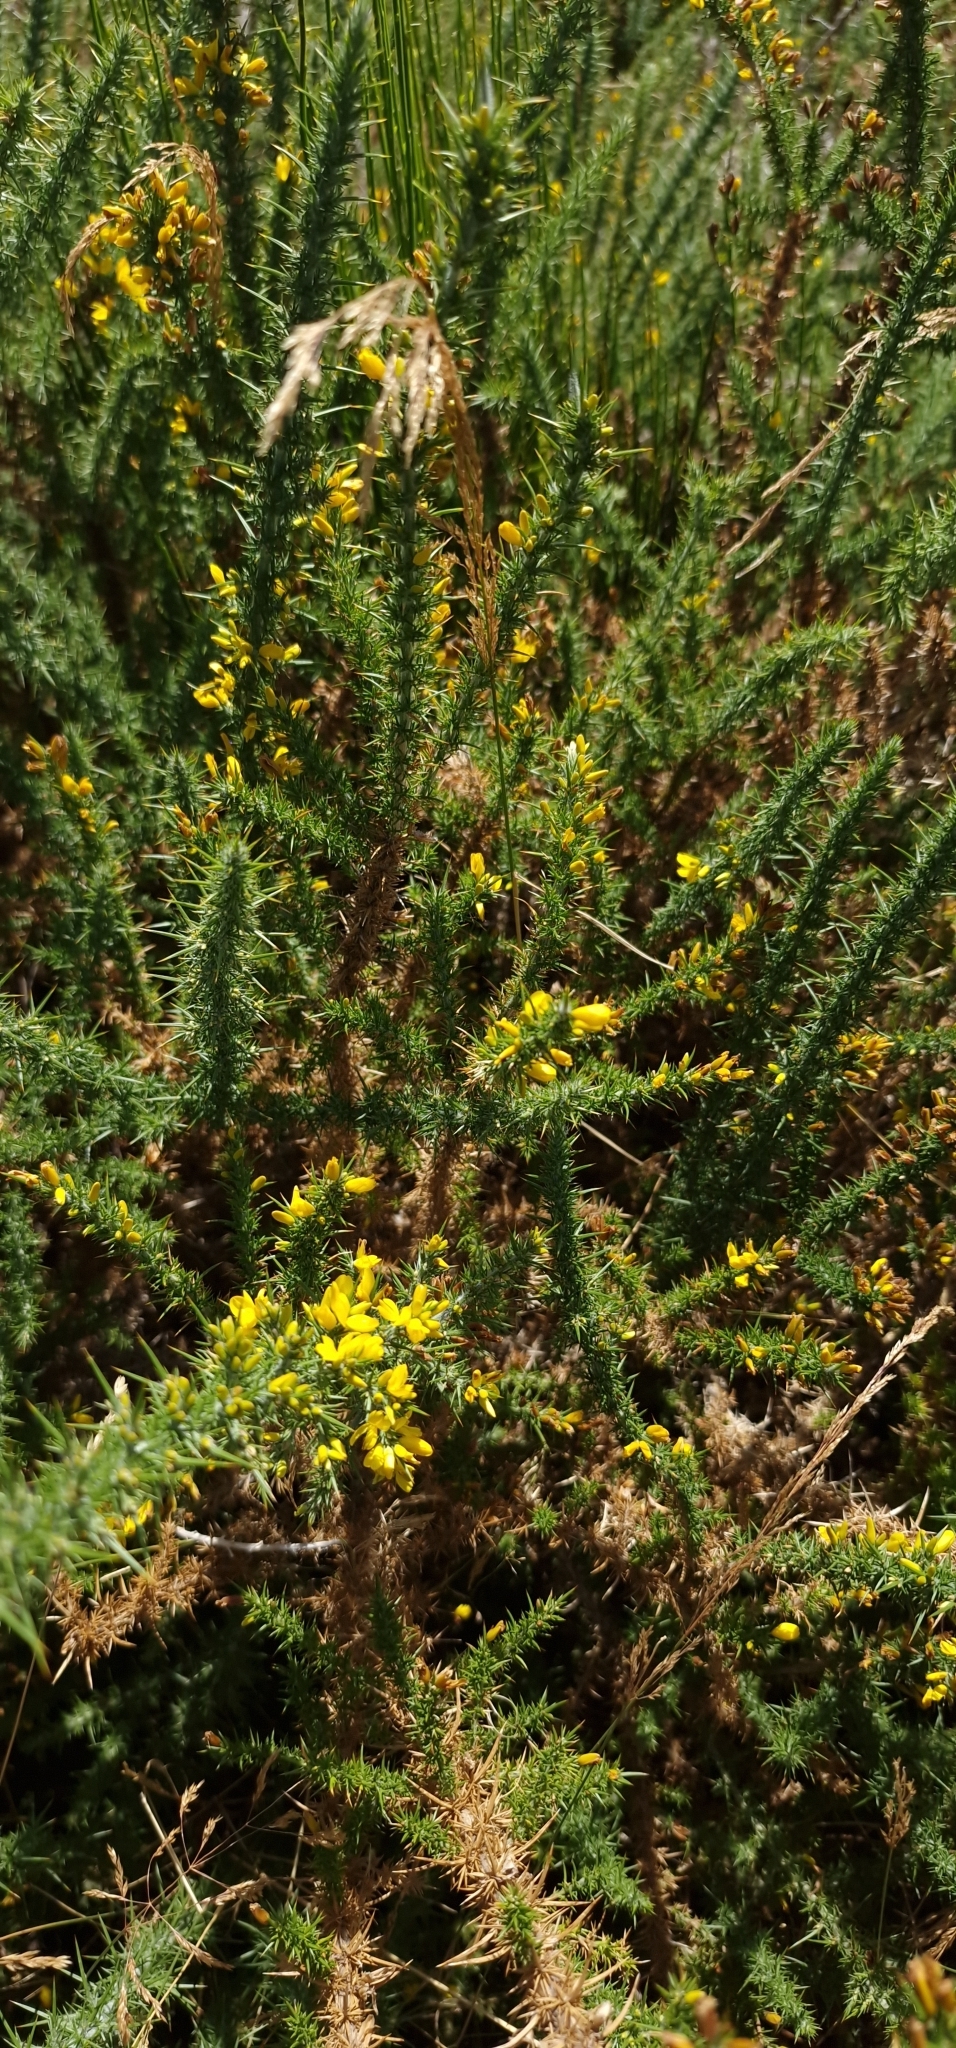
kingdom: Plantae
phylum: Tracheophyta
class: Magnoliopsida
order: Fabales
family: Fabaceae
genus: Ulex
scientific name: Ulex minor
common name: Dwarf gorse
